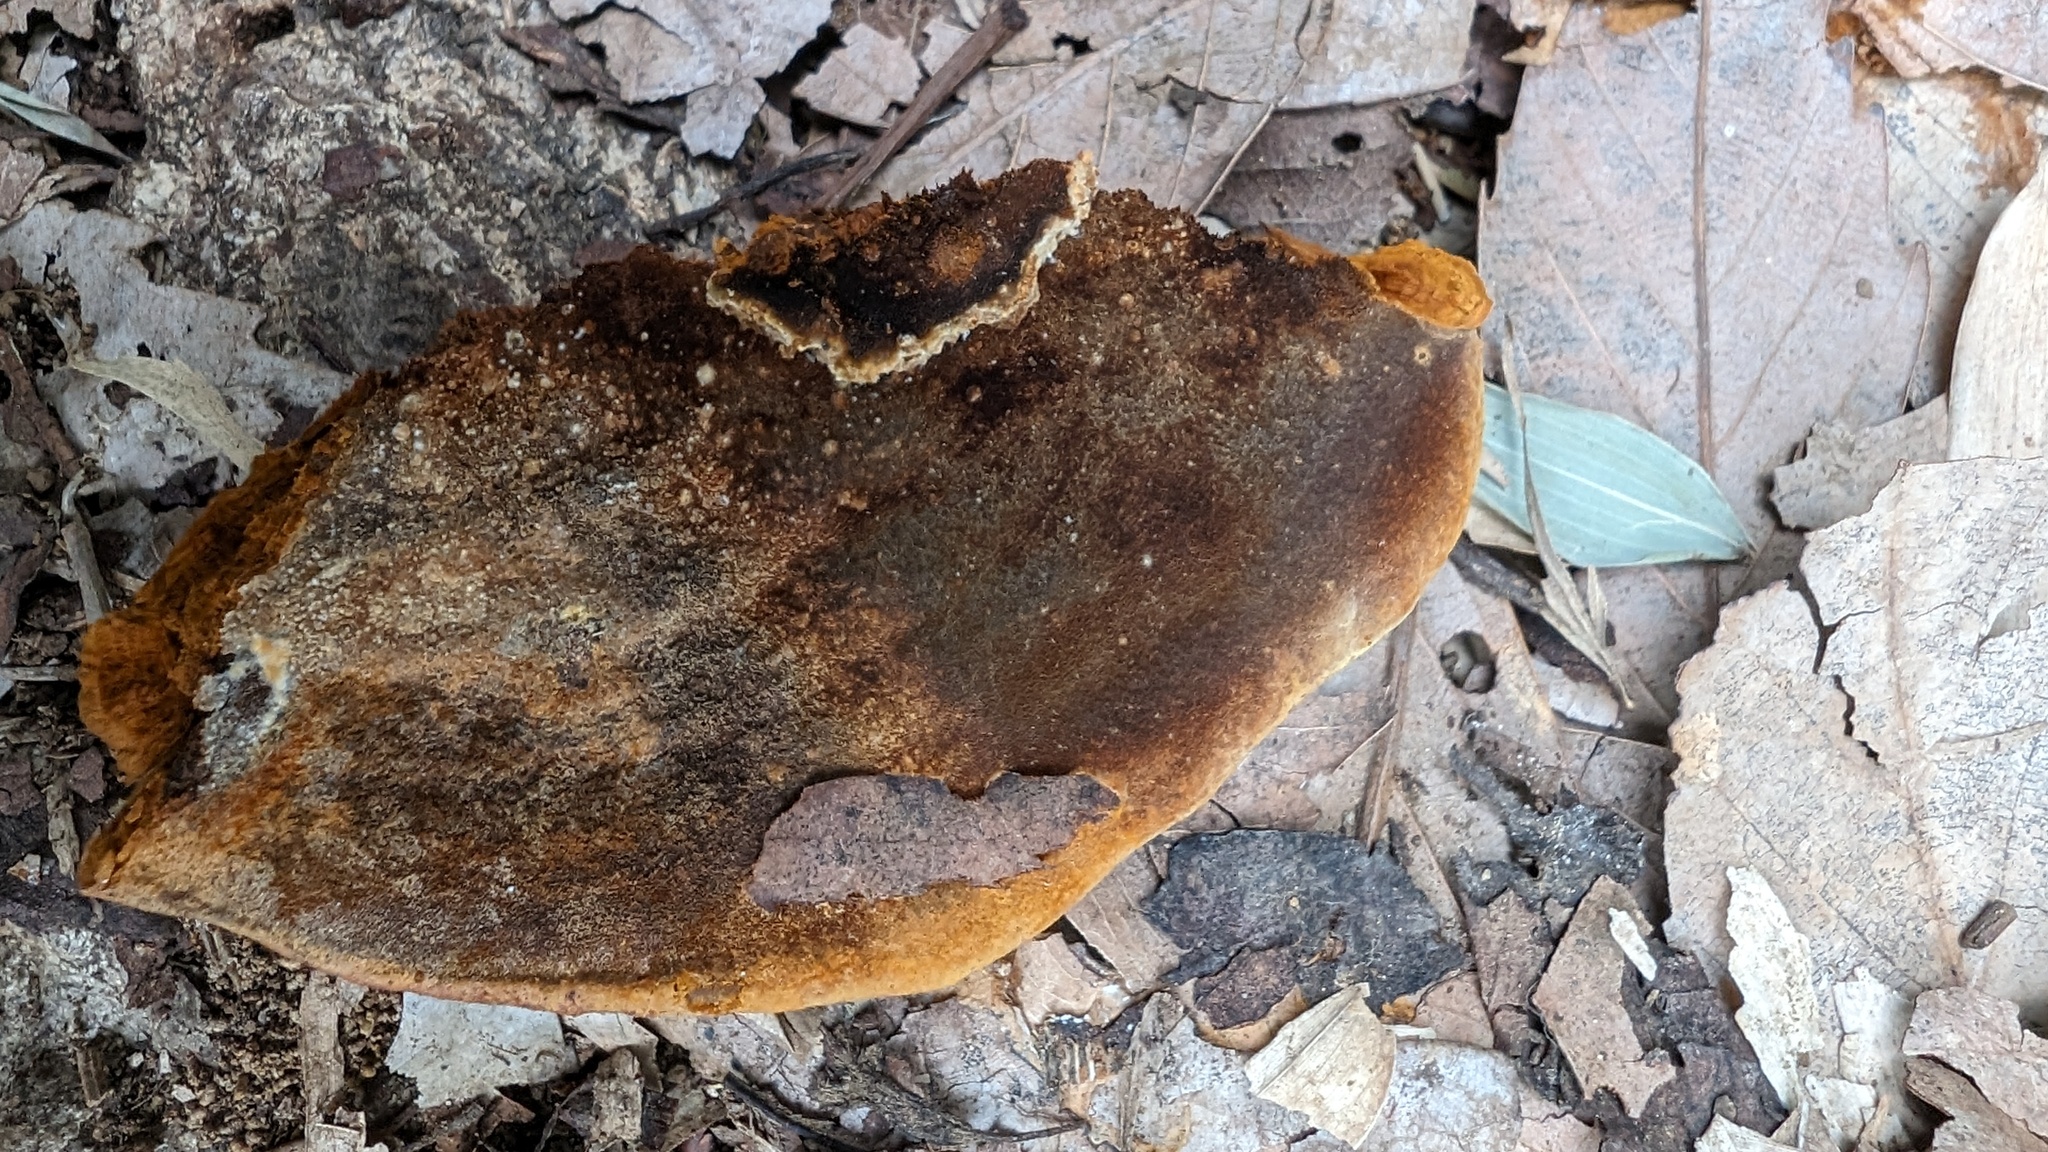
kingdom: Fungi
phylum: Basidiomycota
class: Agaricomycetes
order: Hymenochaetales
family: Hymenochaetaceae
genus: Phellinus
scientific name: Phellinus gilvus
